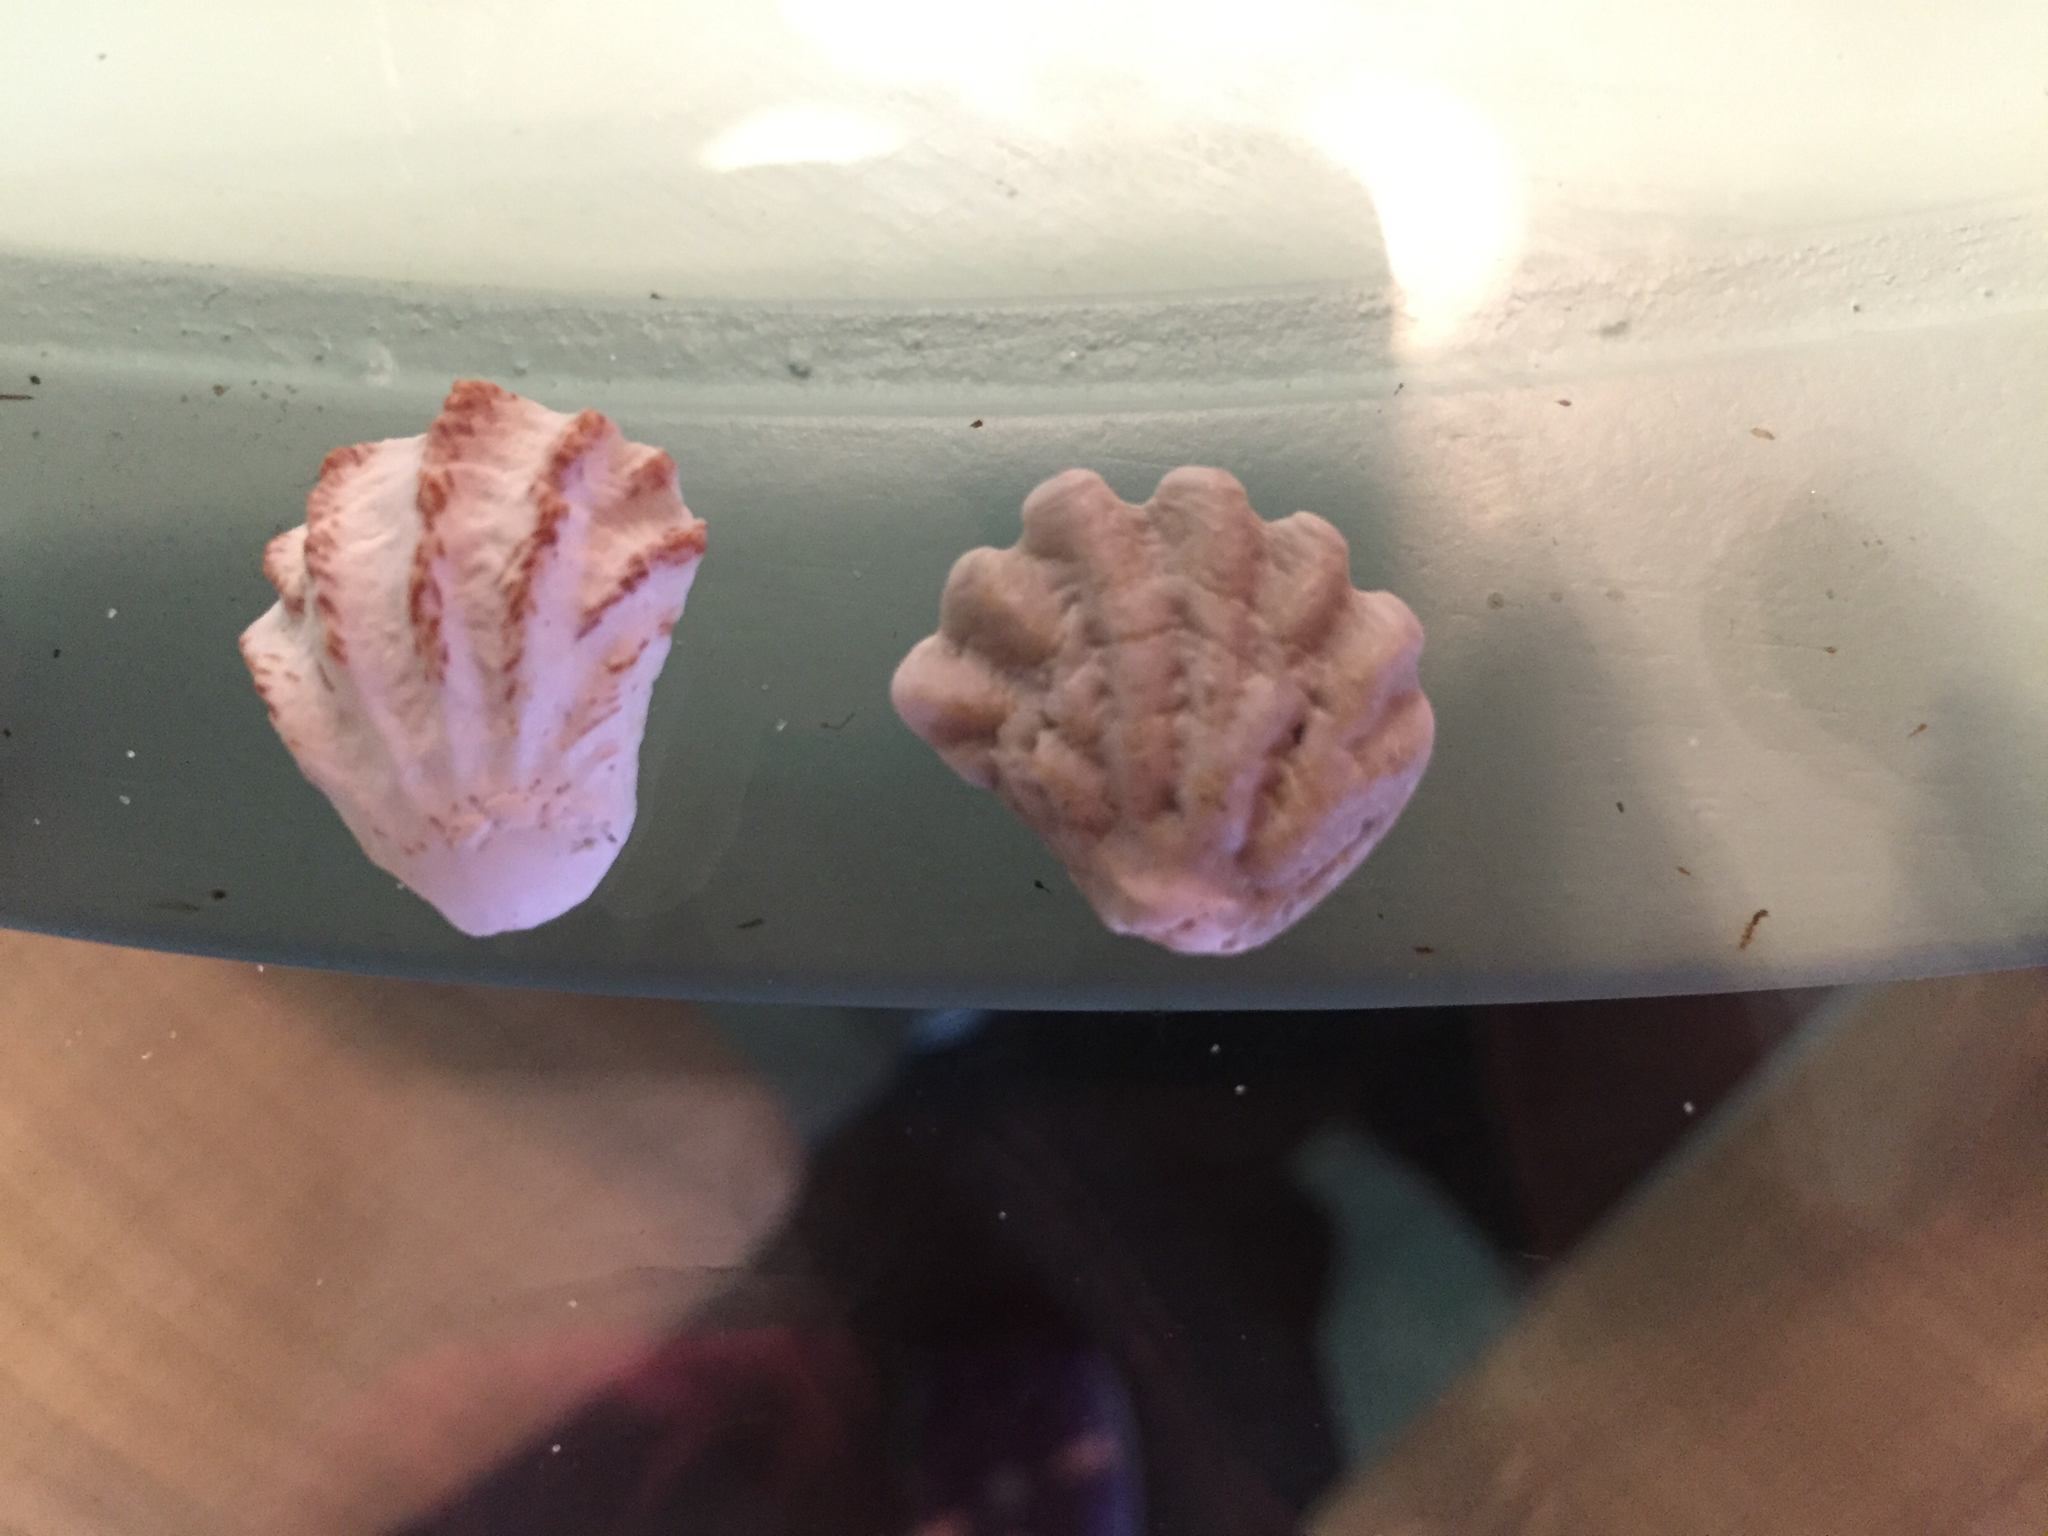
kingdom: Animalia
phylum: Mollusca
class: Bivalvia
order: Pectinida
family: Plicatulidae
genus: Plicatula
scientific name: Plicatula gibbosa
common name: Atlantic kitten's paw
